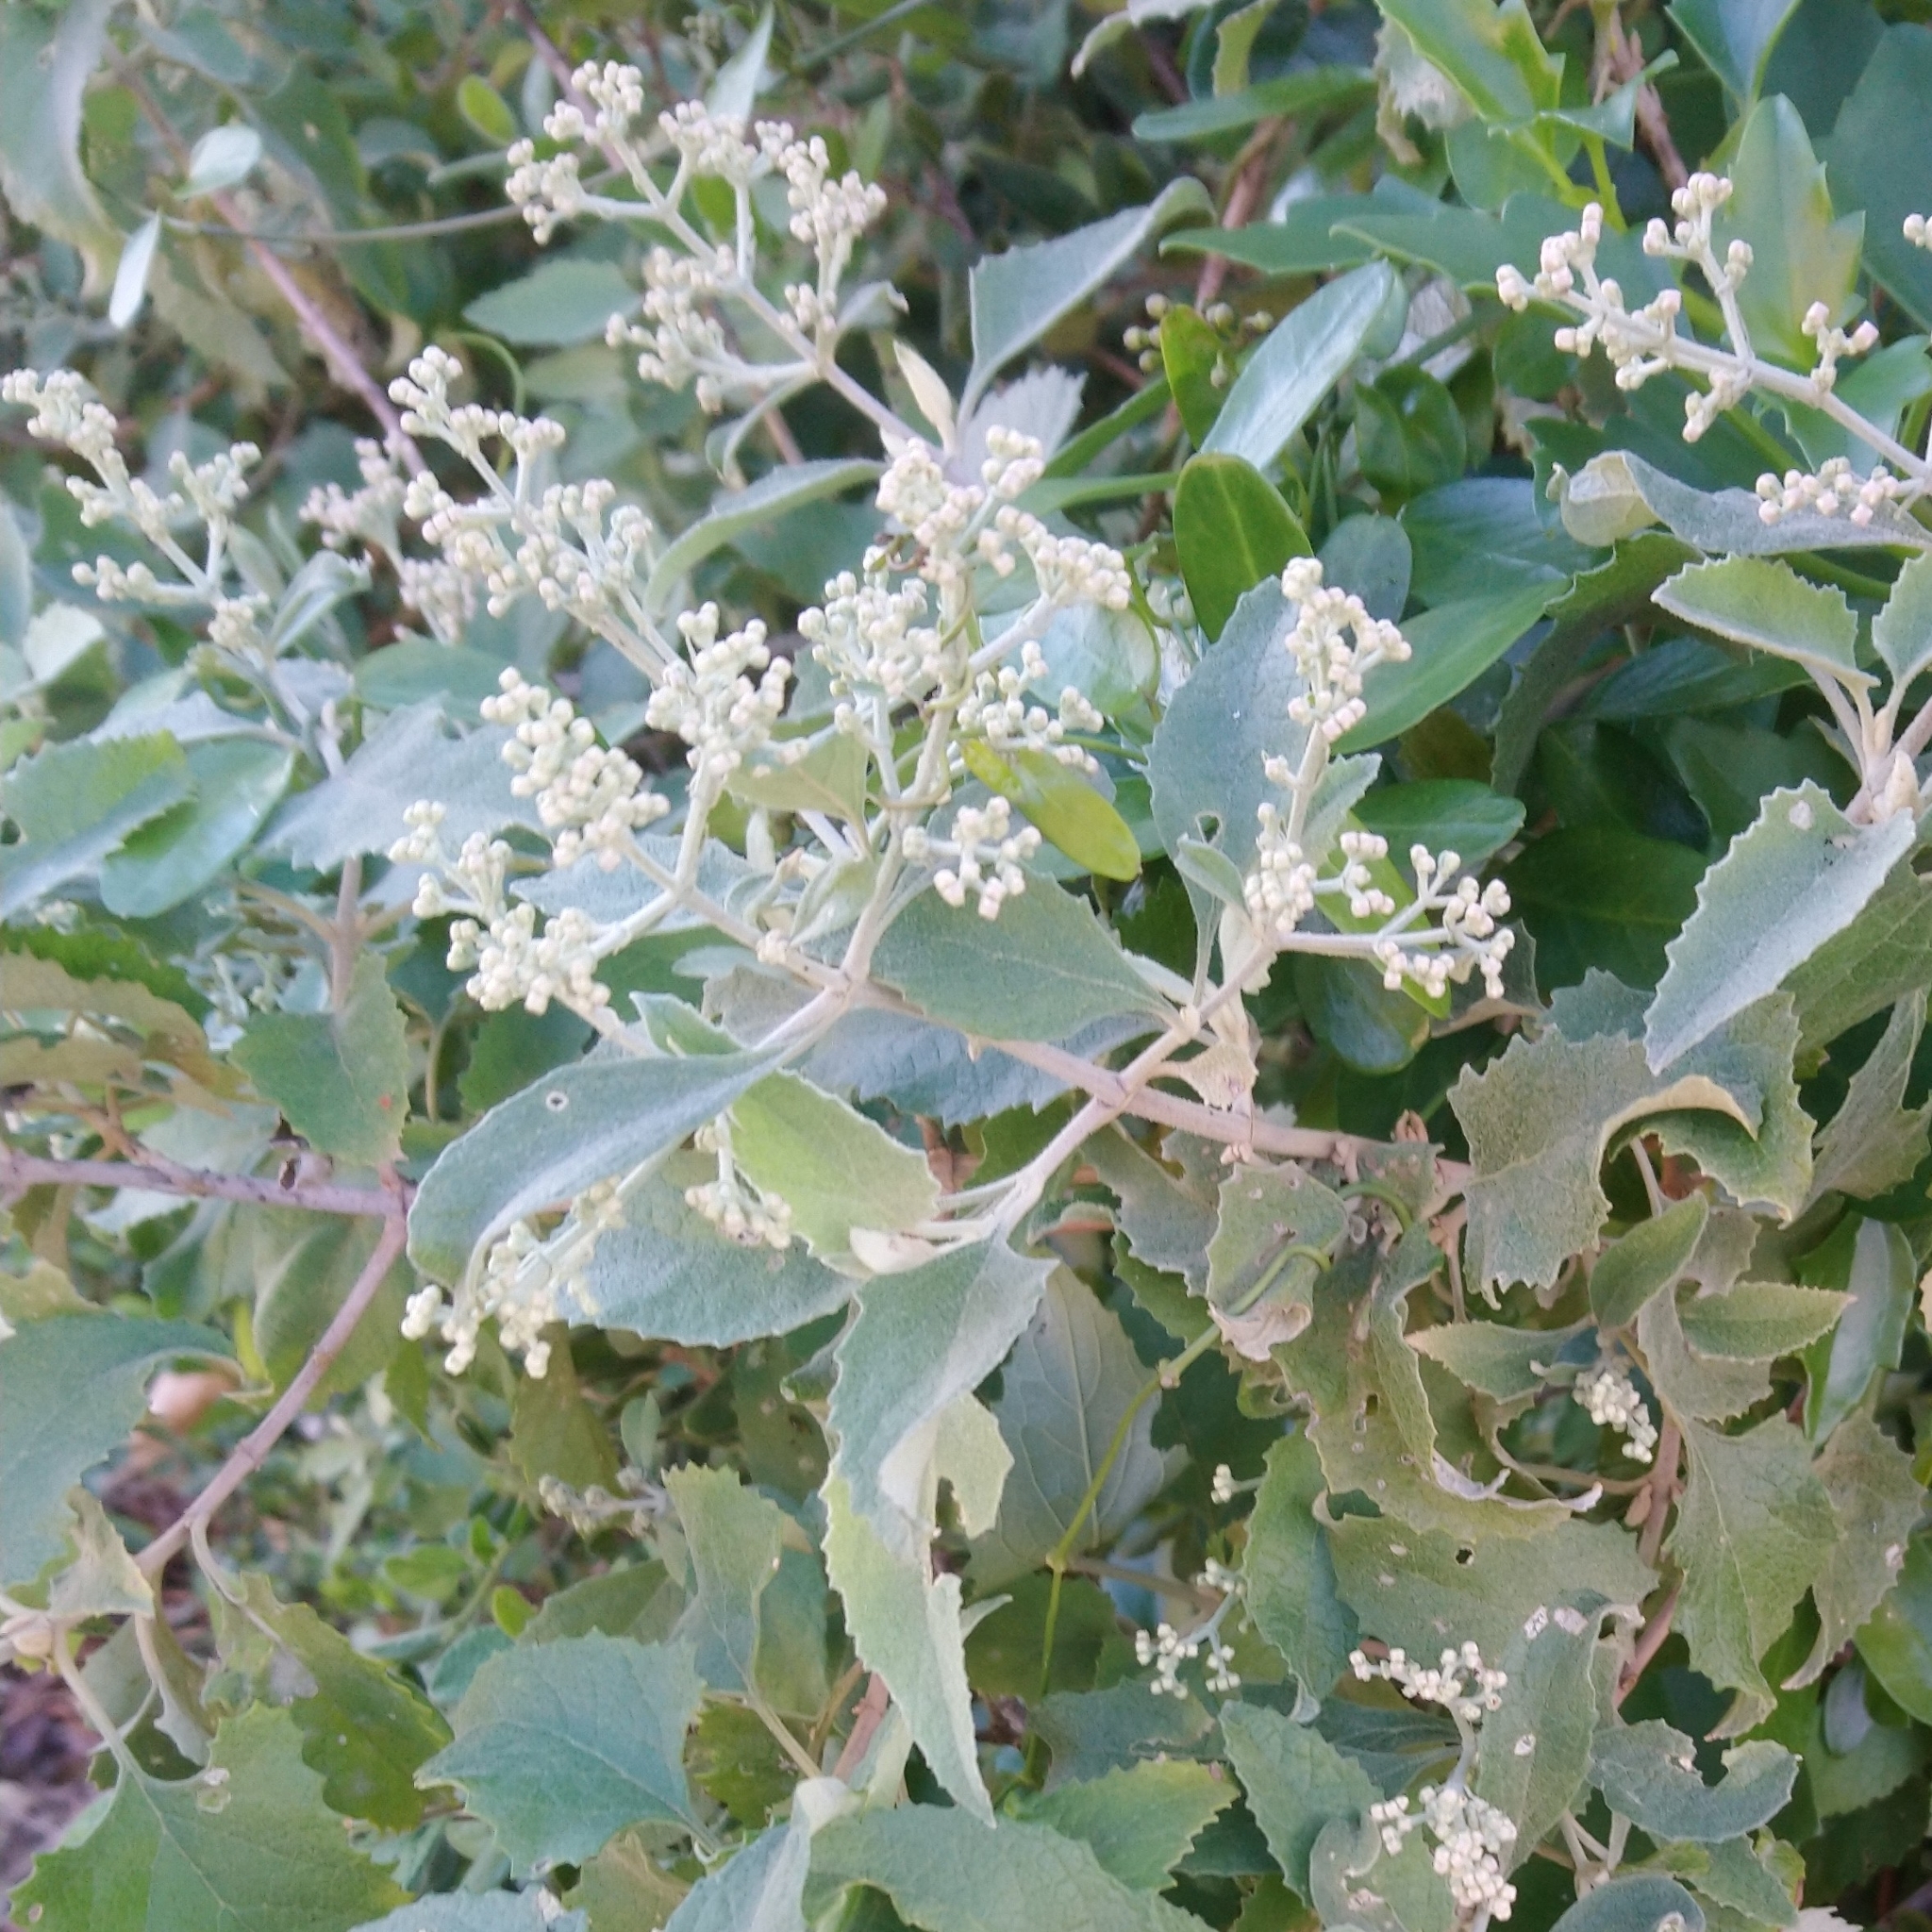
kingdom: Plantae
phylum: Tracheophyta
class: Magnoliopsida
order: Lamiales
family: Scrophulariaceae
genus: Buddleja
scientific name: Buddleja dysophylla
